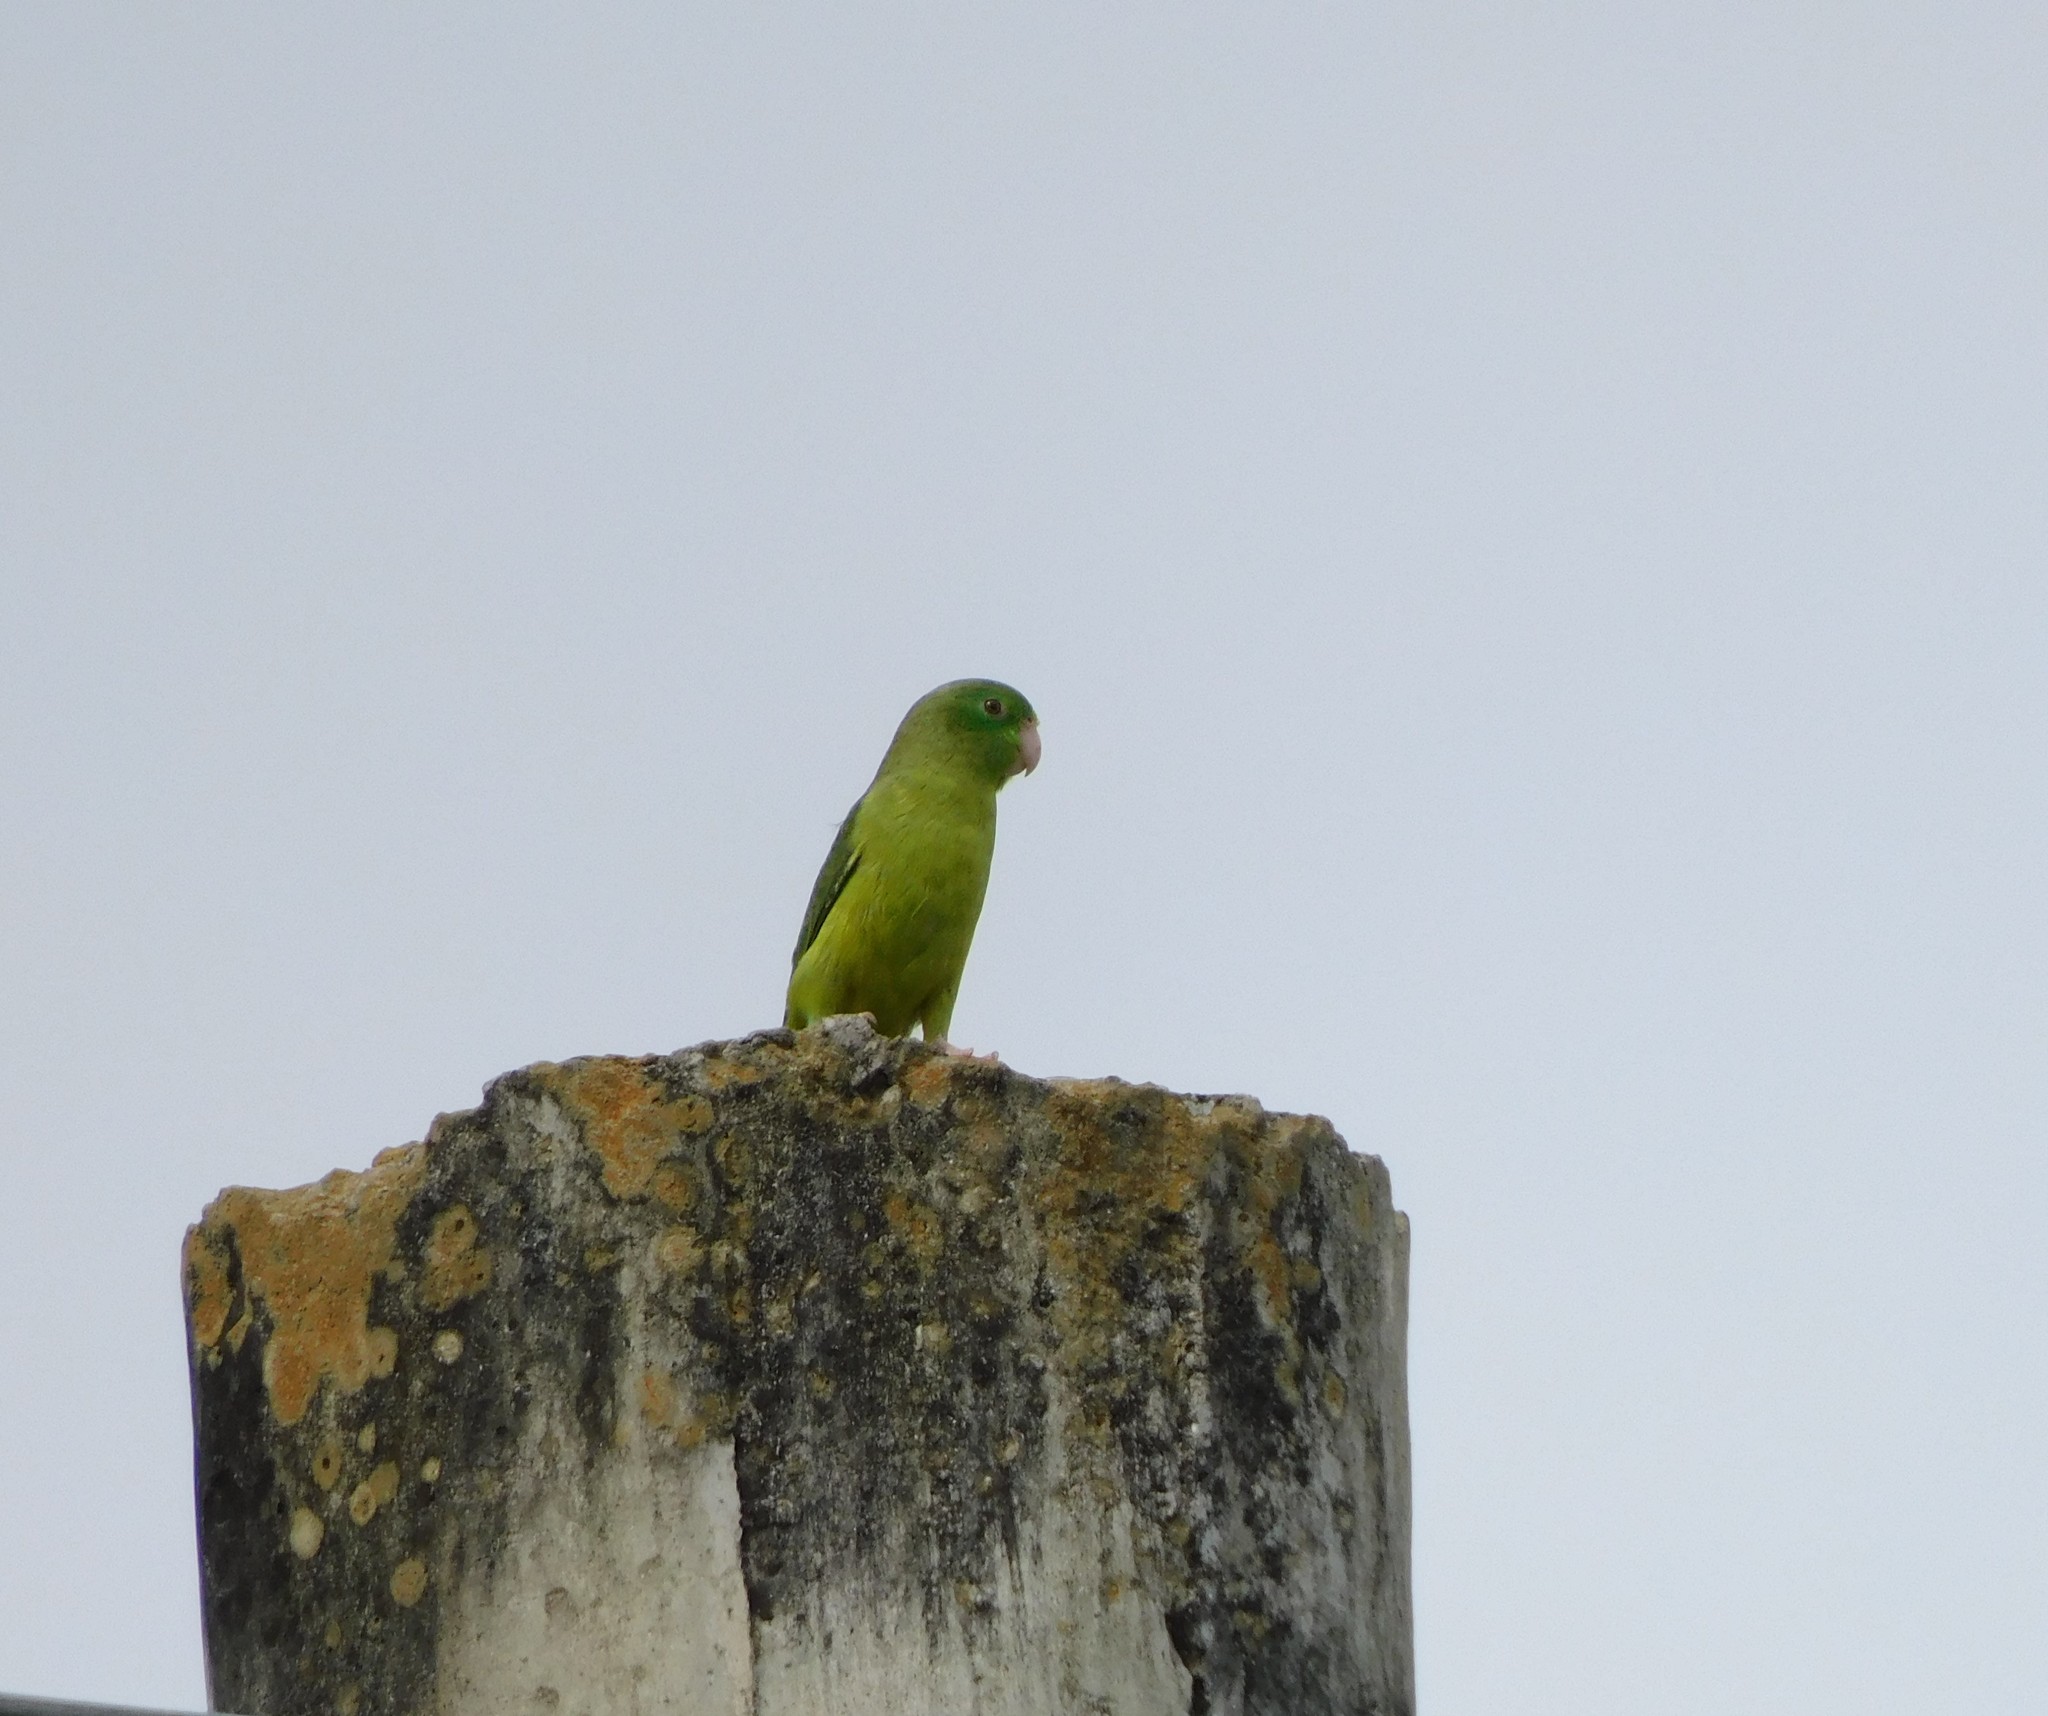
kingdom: Animalia
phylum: Chordata
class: Aves
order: Psittaciformes
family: Psittacidae
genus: Forpus
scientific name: Forpus conspicillatus
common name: Spectacled parrotlet
